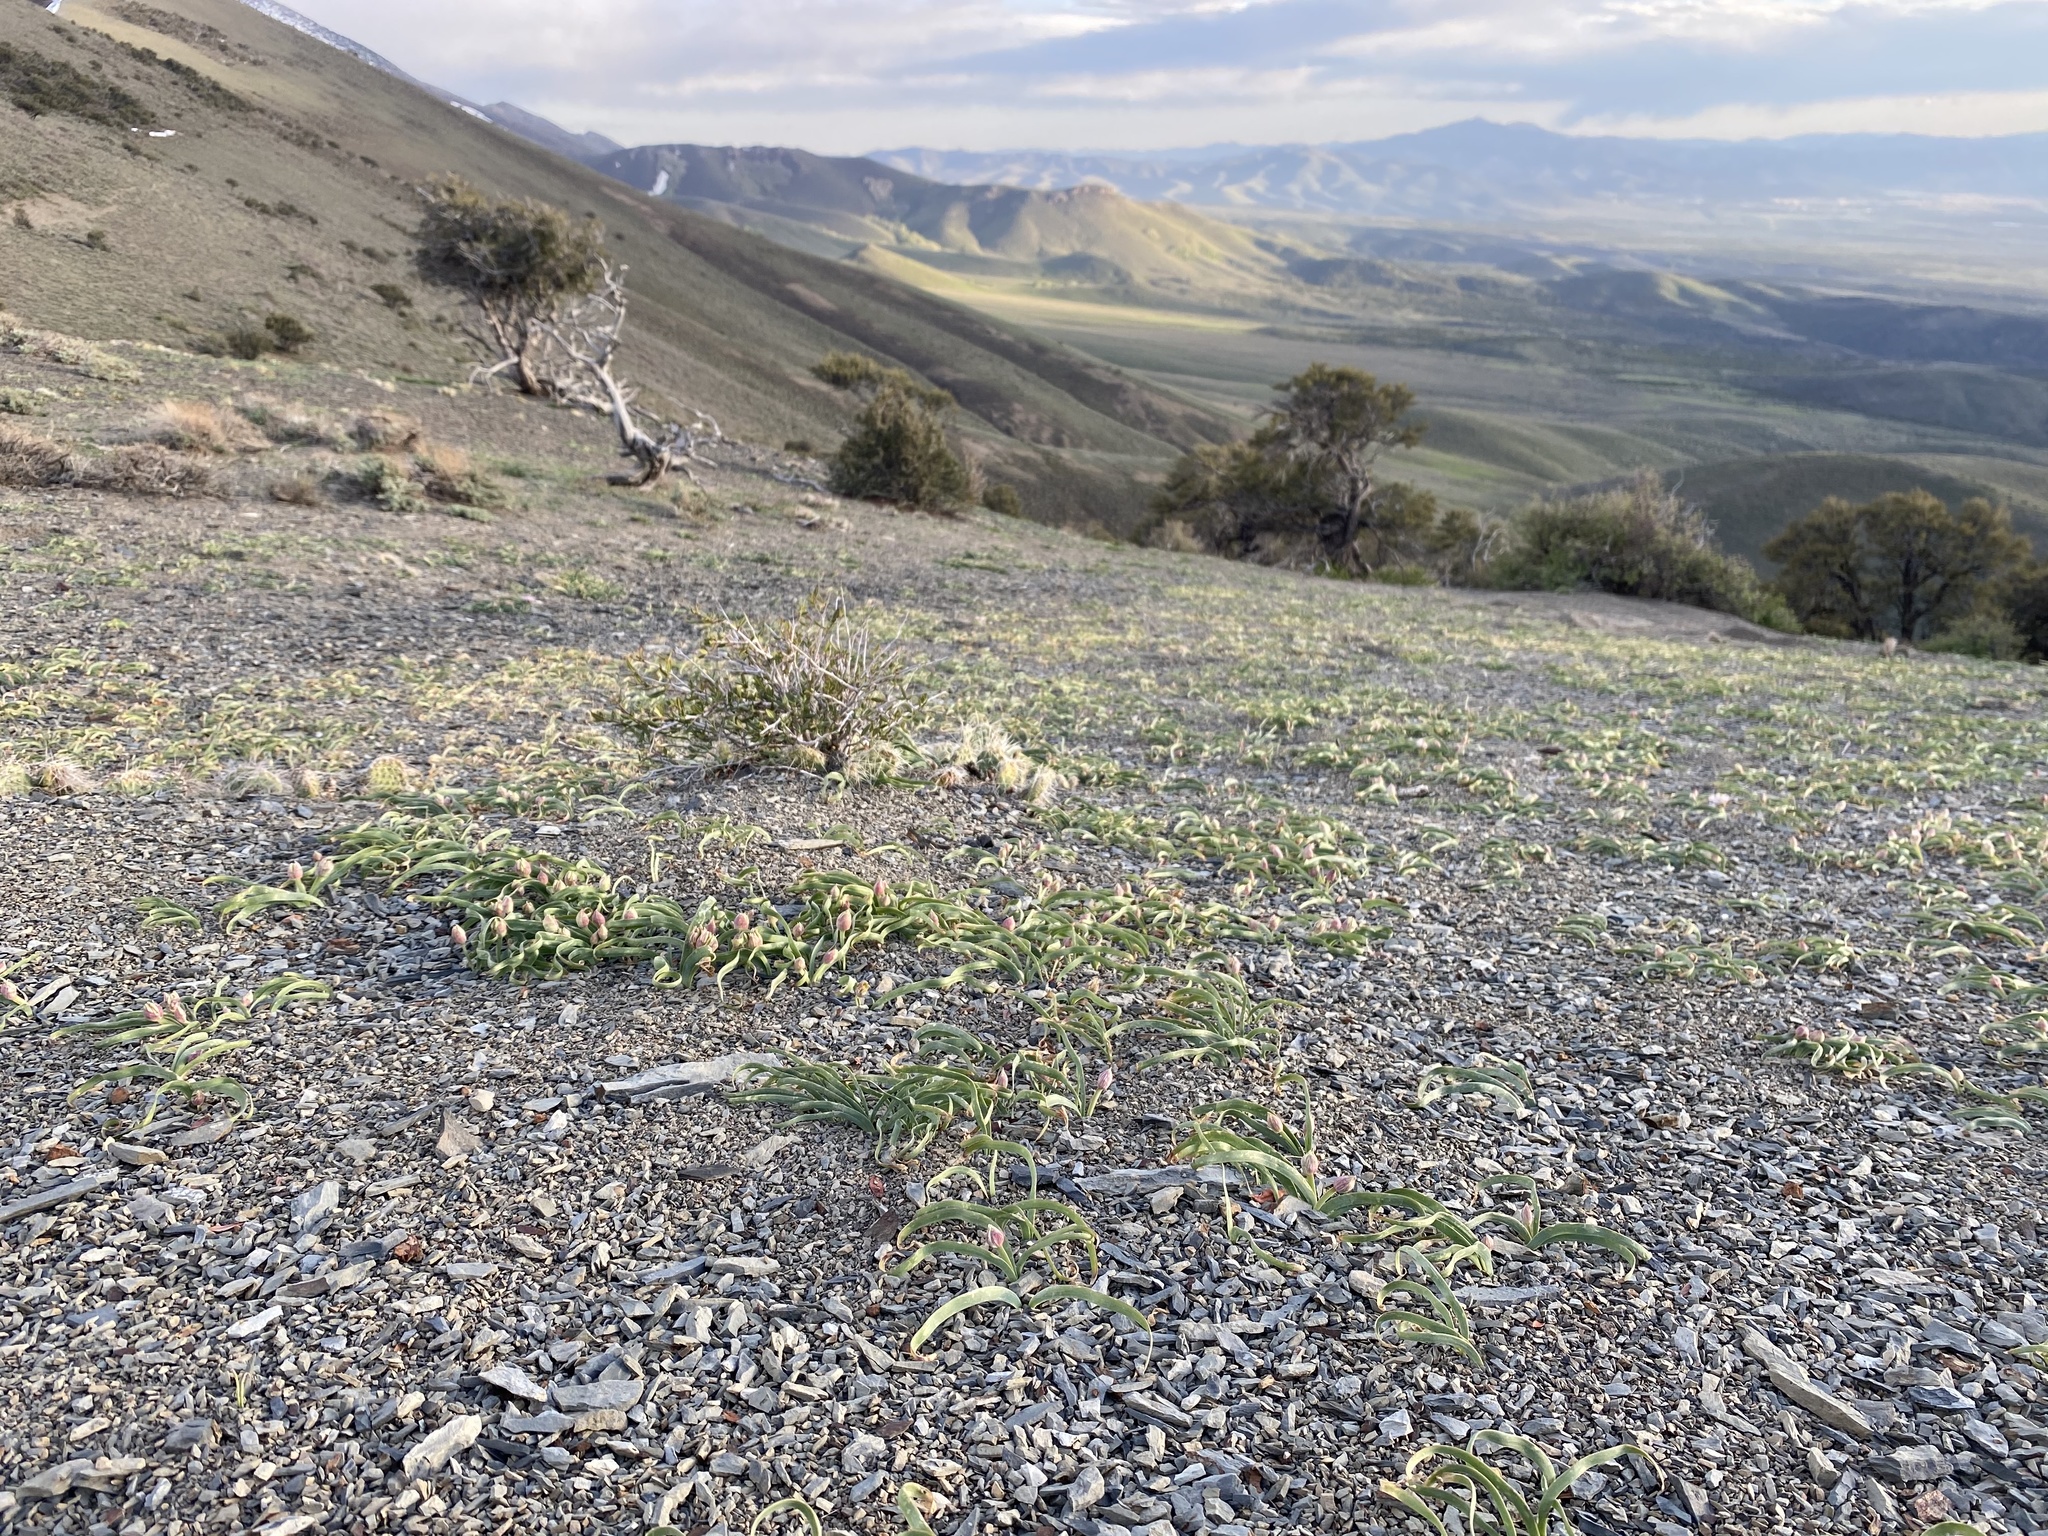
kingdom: Plantae
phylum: Tracheophyta
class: Liliopsida
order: Asparagales
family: Amaryllidaceae
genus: Allium
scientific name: Allium anceps
